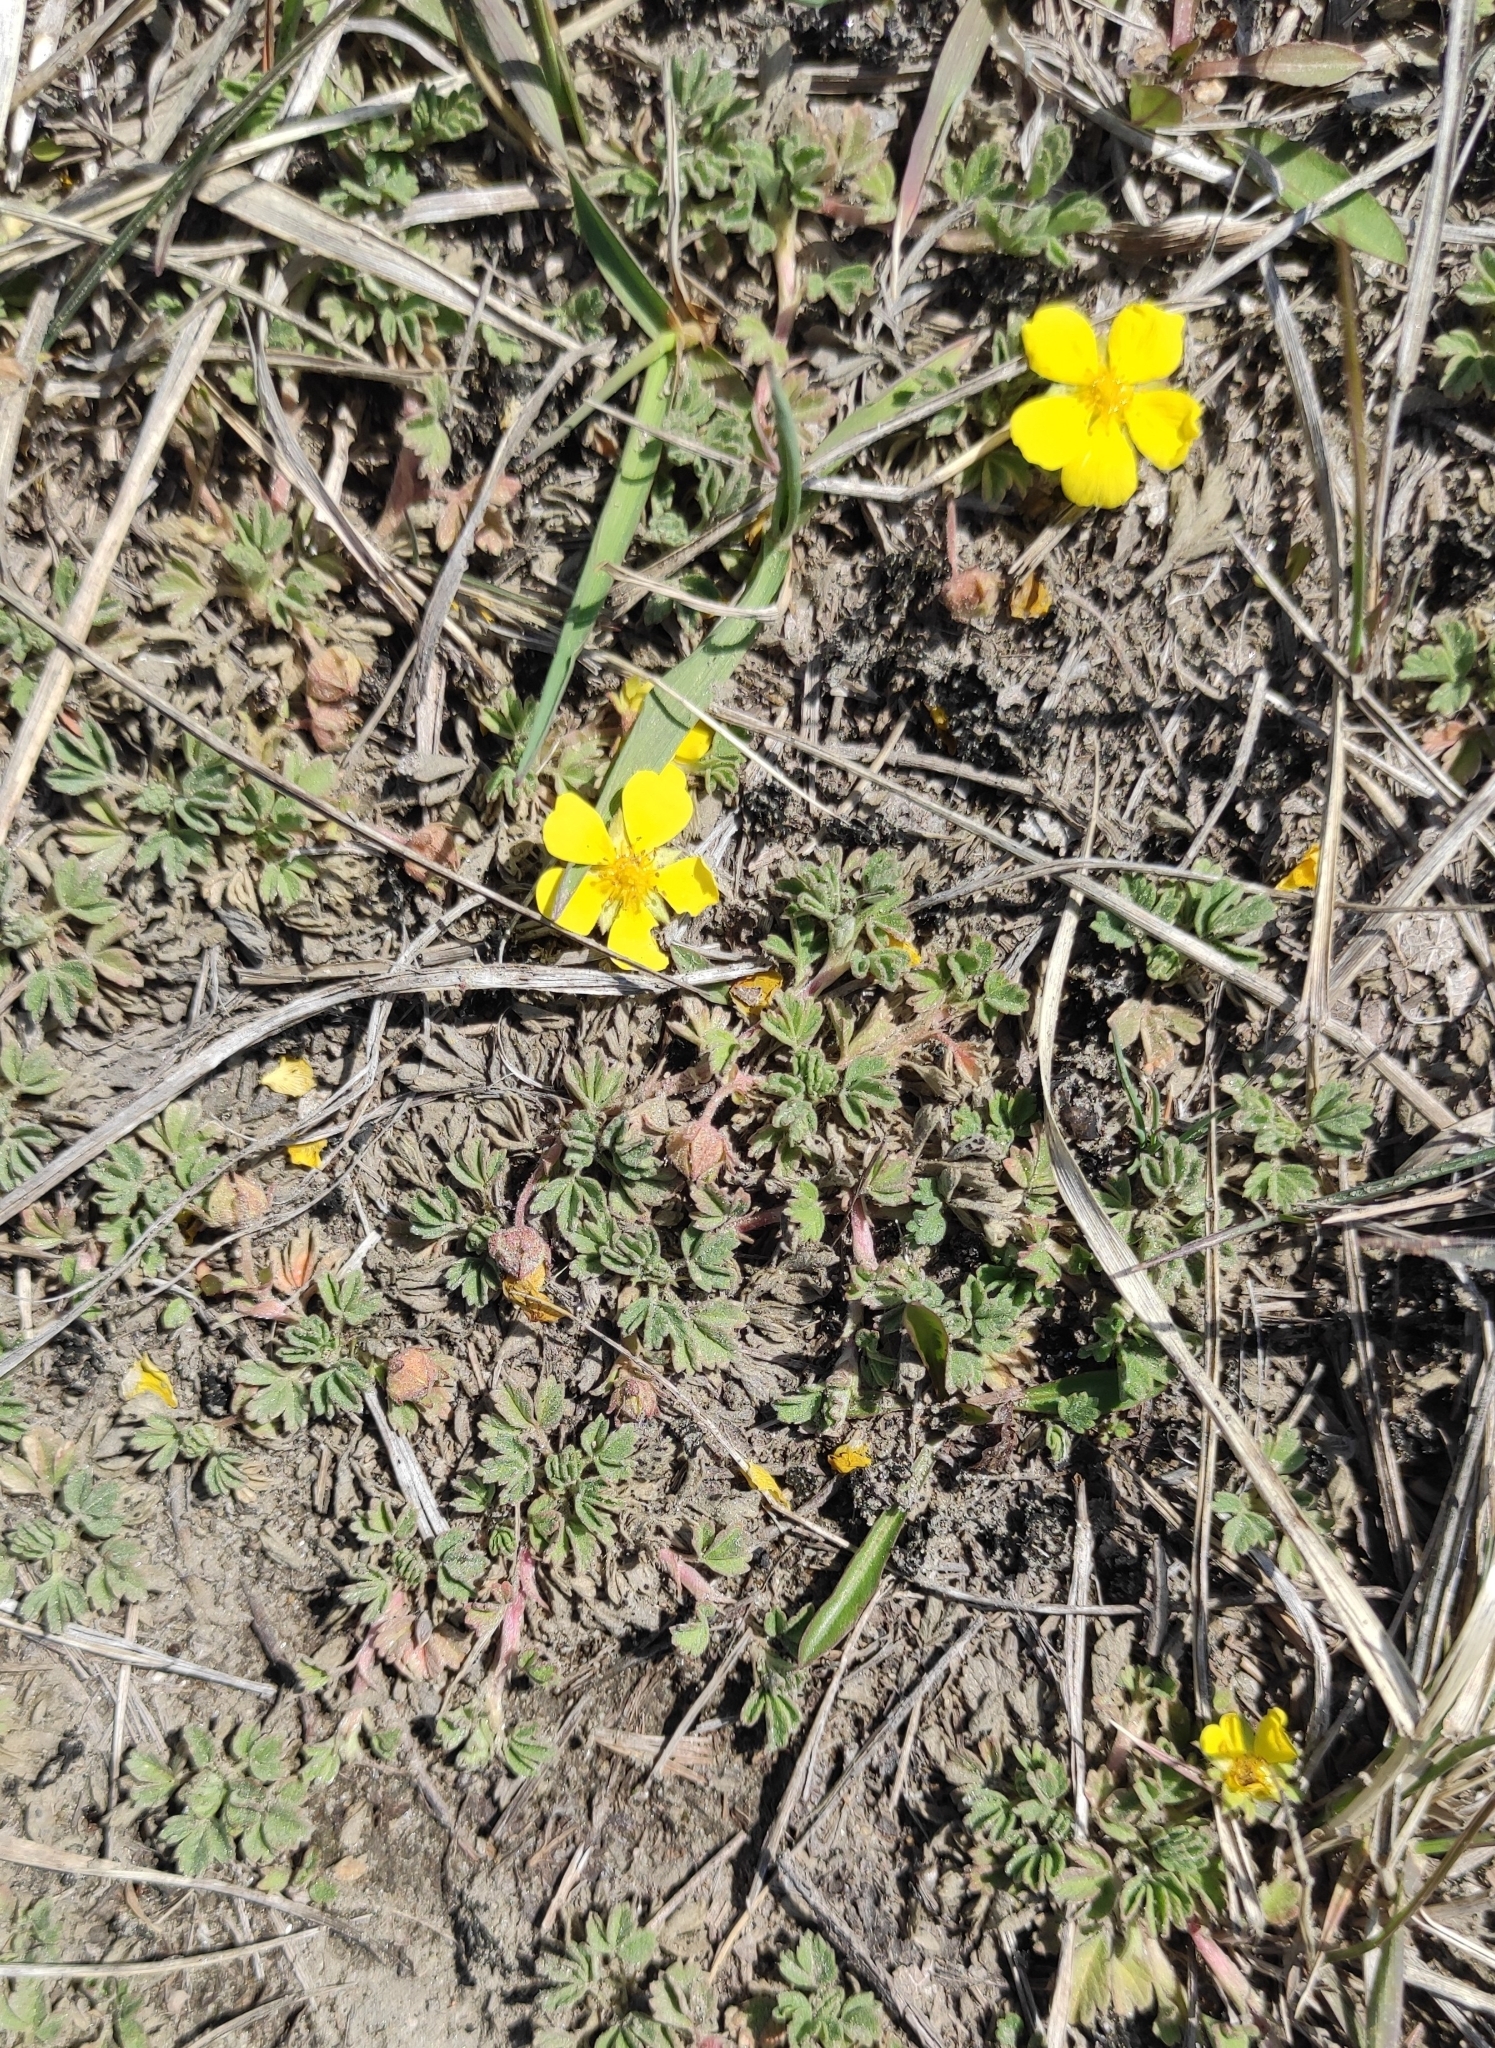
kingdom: Plantae
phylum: Tracheophyta
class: Magnoliopsida
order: Rosales
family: Rosaceae
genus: Potentilla
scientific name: Potentilla acaulis
